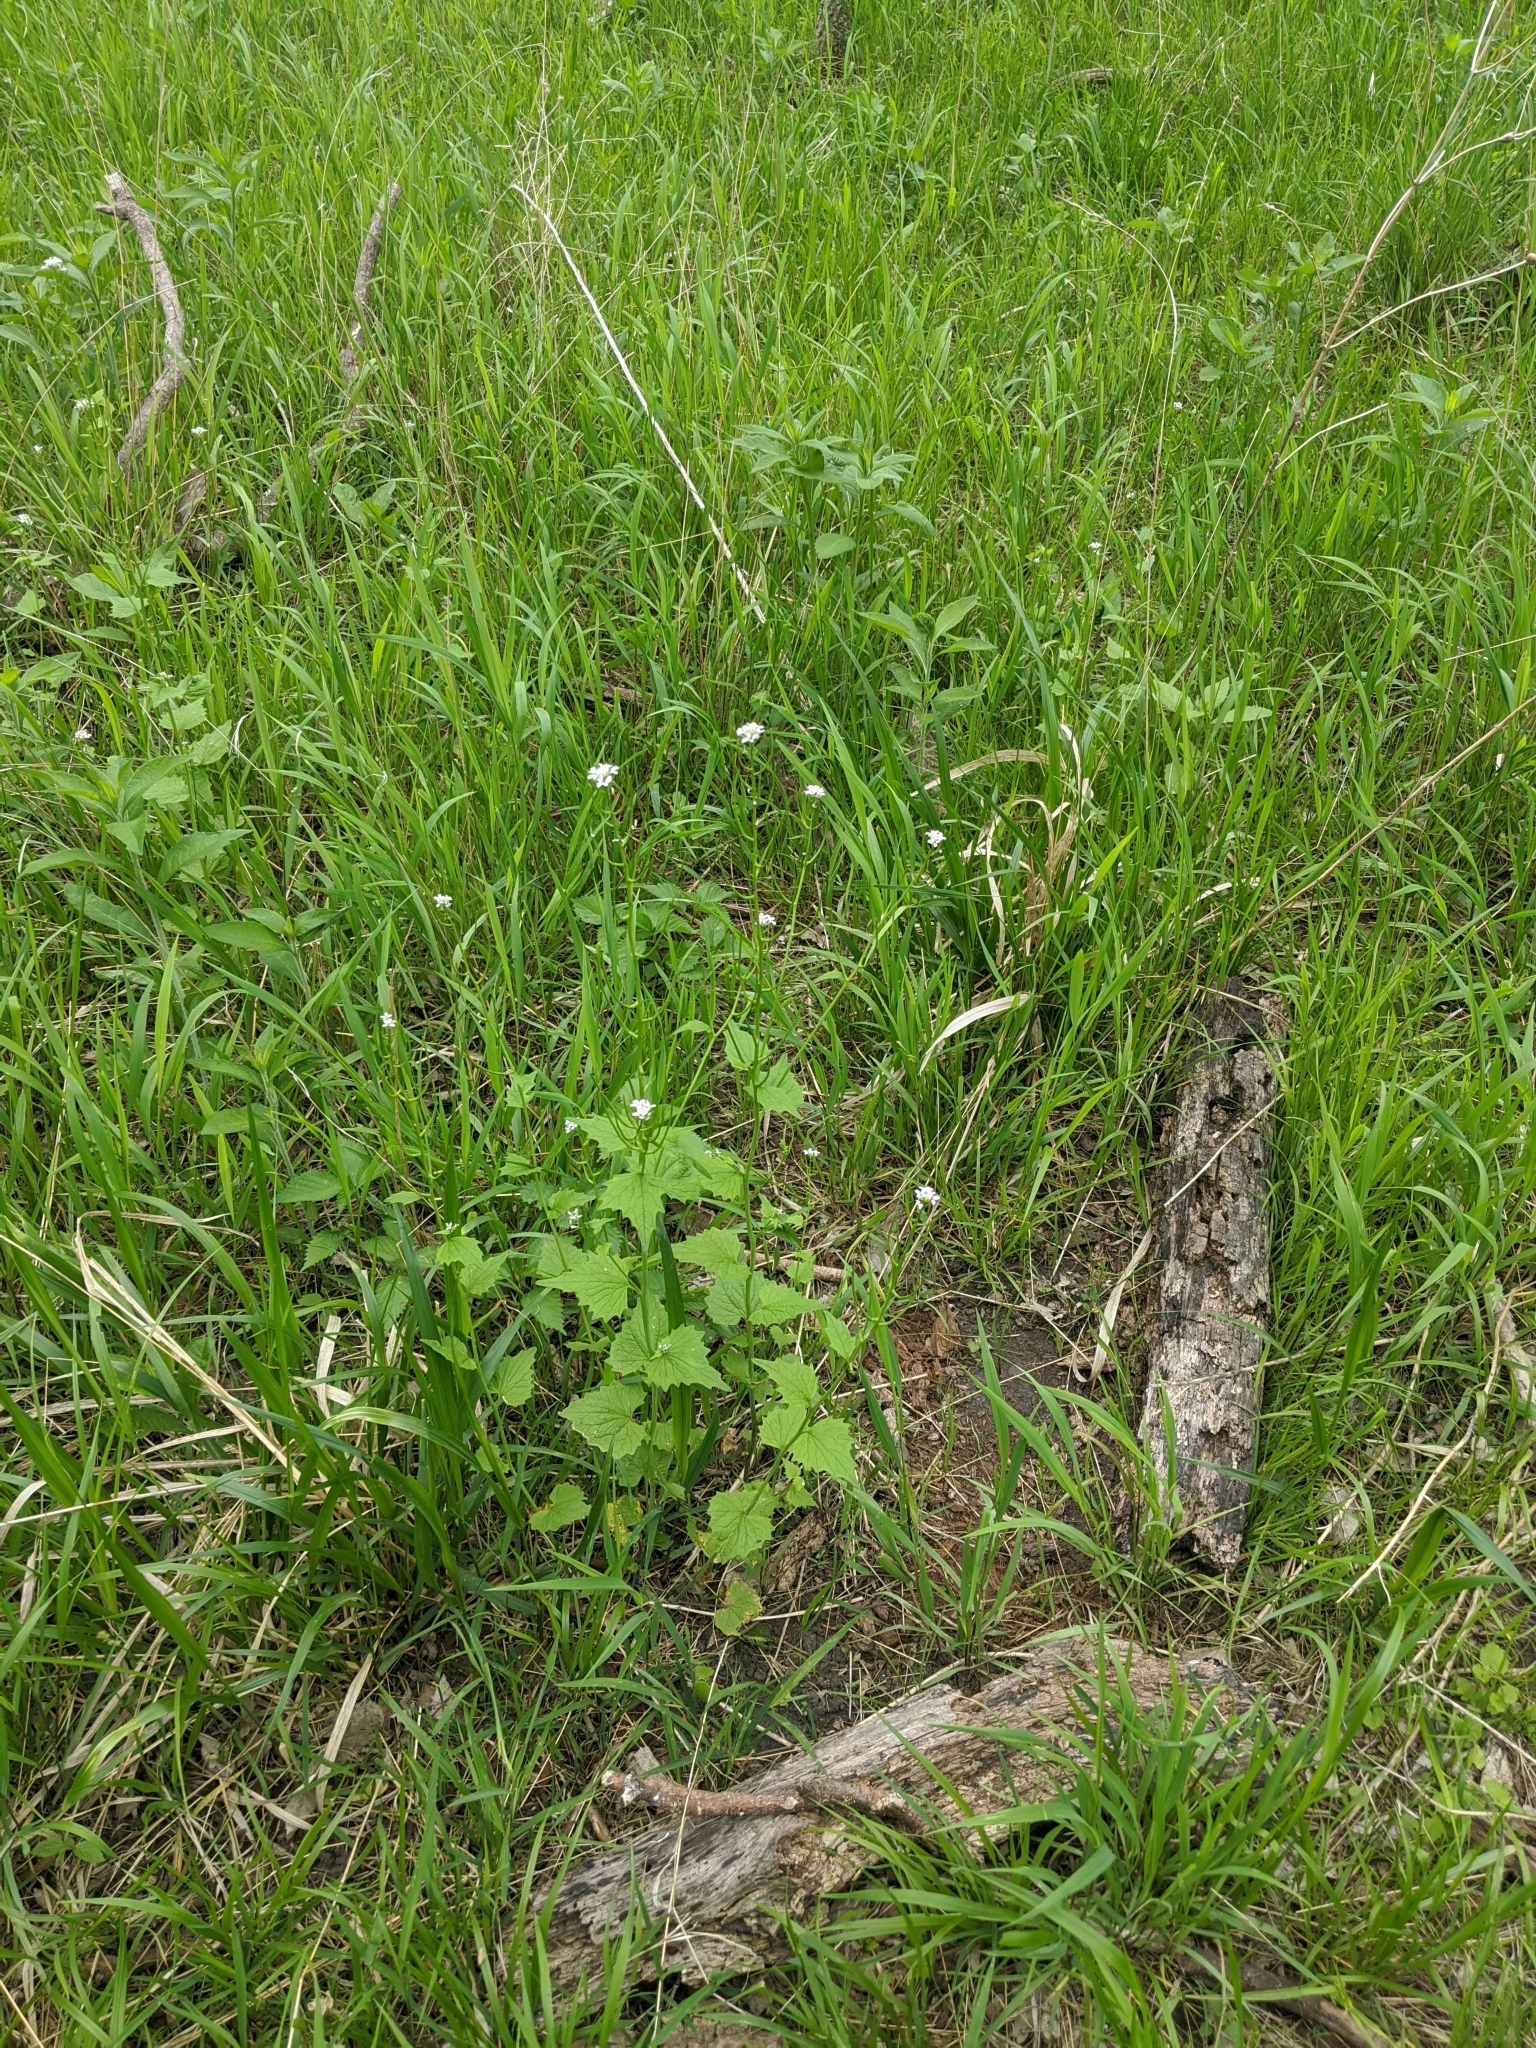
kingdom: Plantae
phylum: Tracheophyta
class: Magnoliopsida
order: Brassicales
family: Brassicaceae
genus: Alliaria
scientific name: Alliaria petiolata
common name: Garlic mustard
